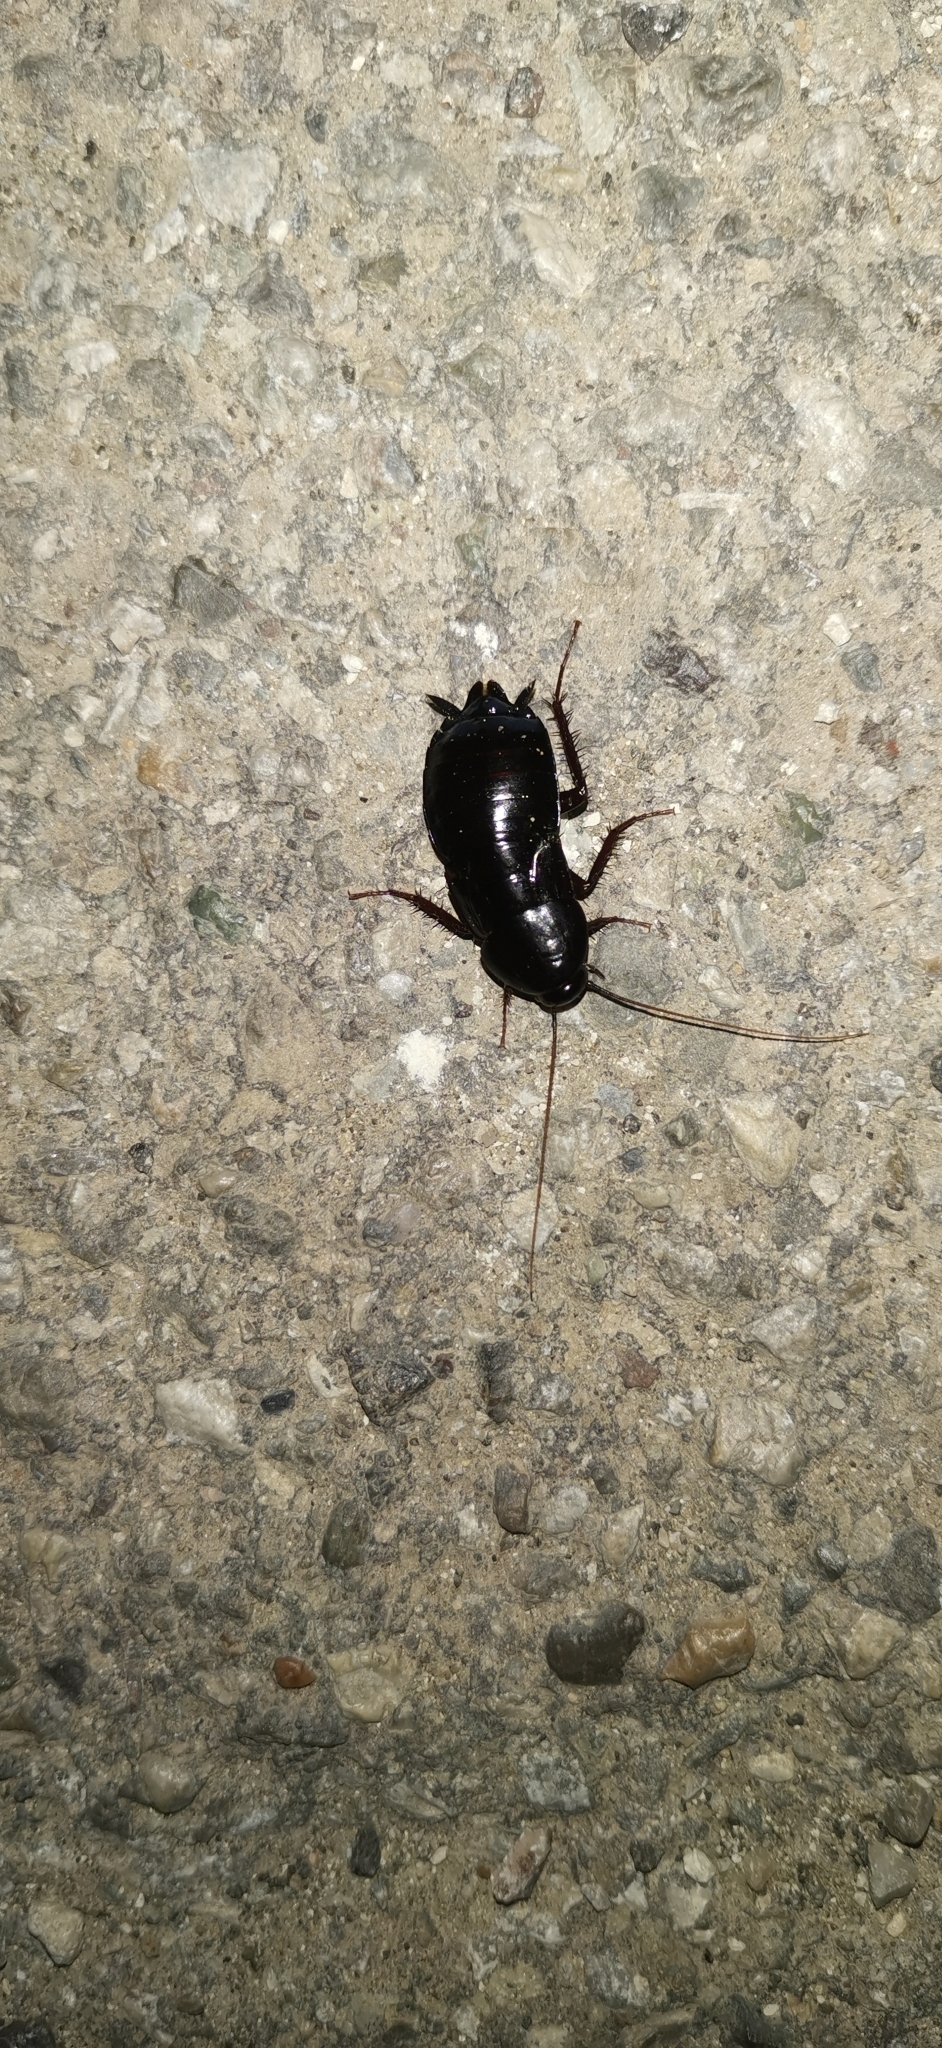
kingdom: Animalia
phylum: Arthropoda
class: Insecta
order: Blattodea
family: Blattidae
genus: Blatta
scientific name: Blatta orientalis
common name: Oriental cockroach
